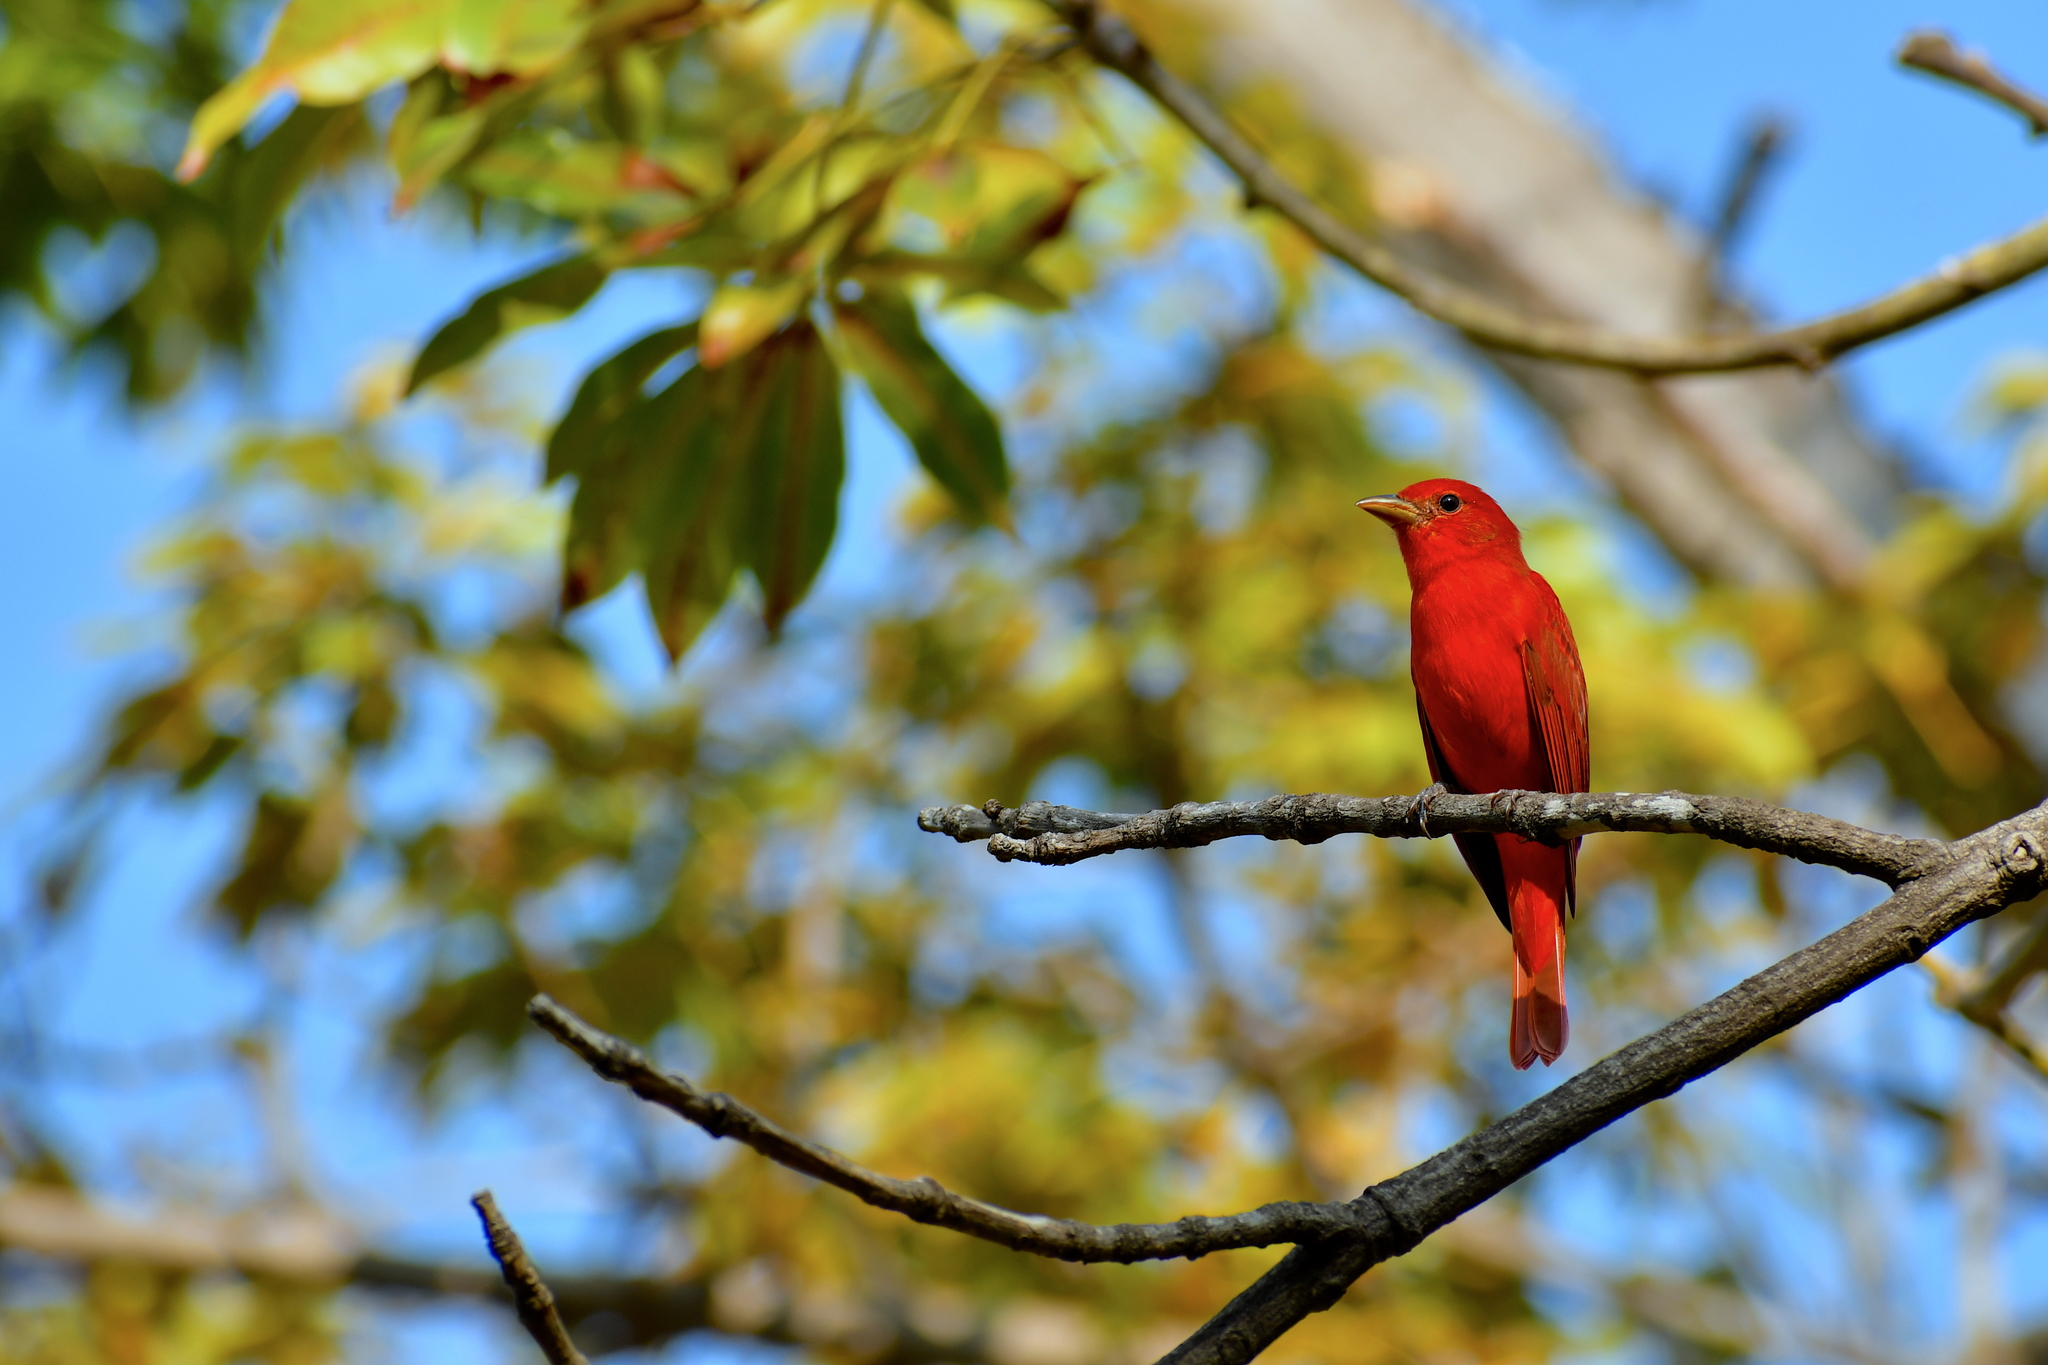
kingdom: Animalia
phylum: Chordata
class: Aves
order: Passeriformes
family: Cardinalidae
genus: Piranga
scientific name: Piranga rubra
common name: Summer tanager
